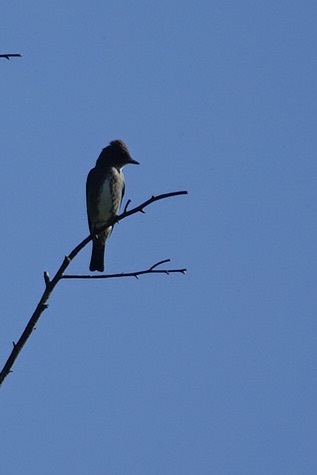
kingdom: Animalia
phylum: Chordata
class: Aves
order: Passeriformes
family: Tyrannidae
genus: Contopus
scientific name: Contopus cooperi
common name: Olive-sided flycatcher
